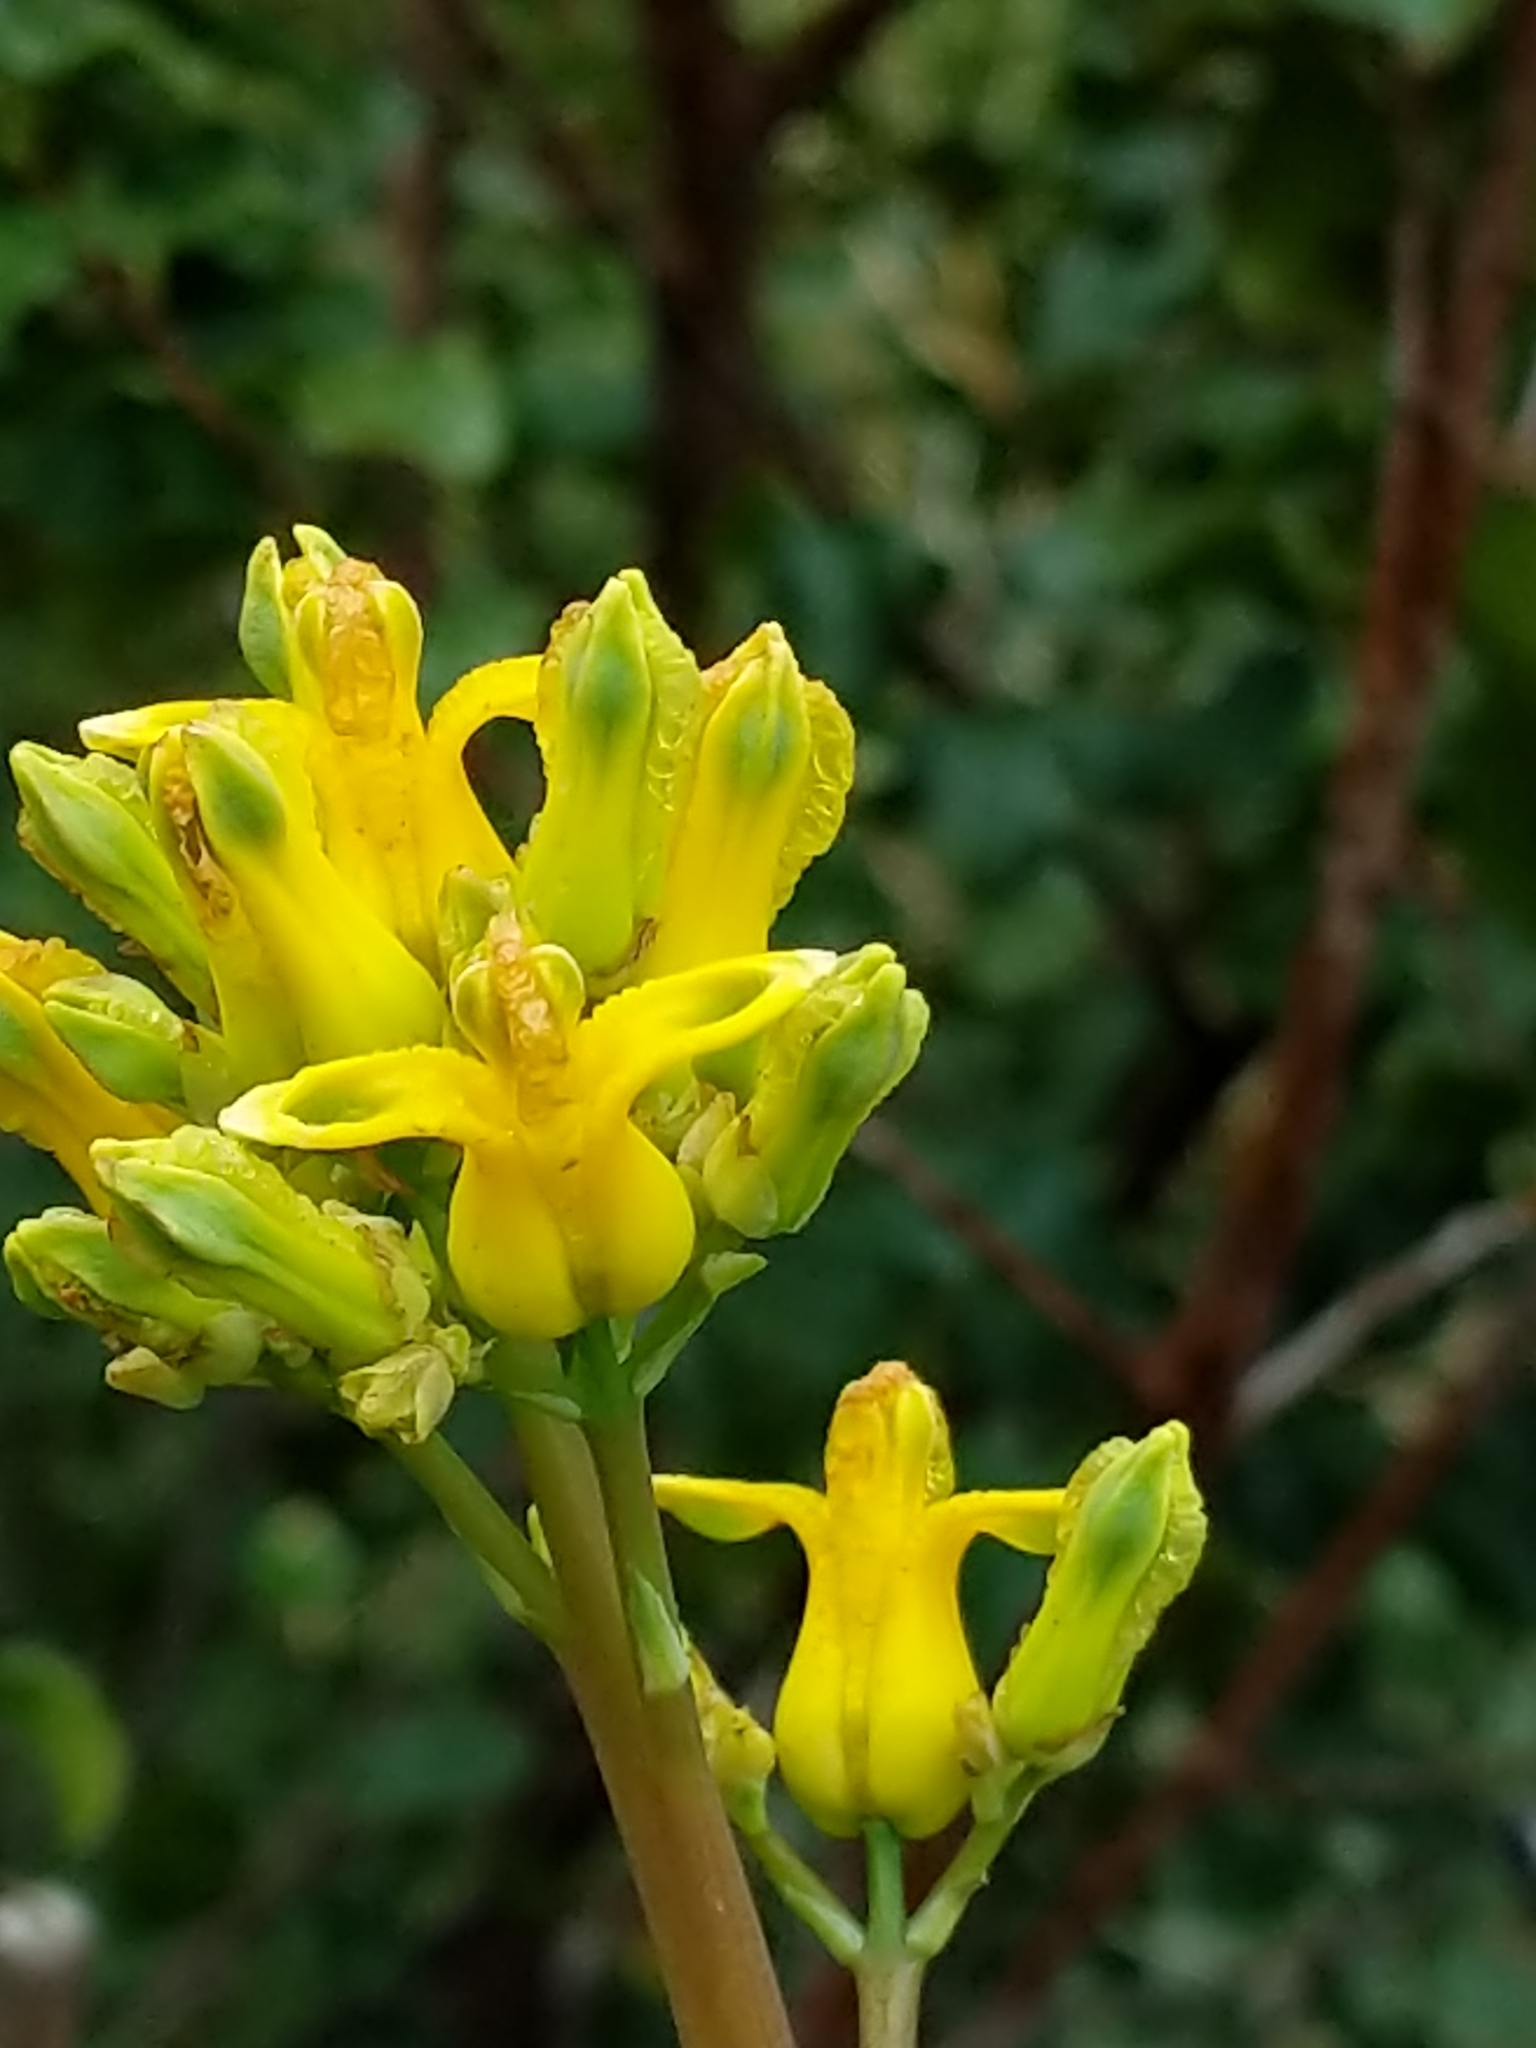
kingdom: Plantae
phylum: Tracheophyta
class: Magnoliopsida
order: Ranunculales
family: Papaveraceae
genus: Ehrendorferia
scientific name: Ehrendorferia chrysantha
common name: Golden eardrops
